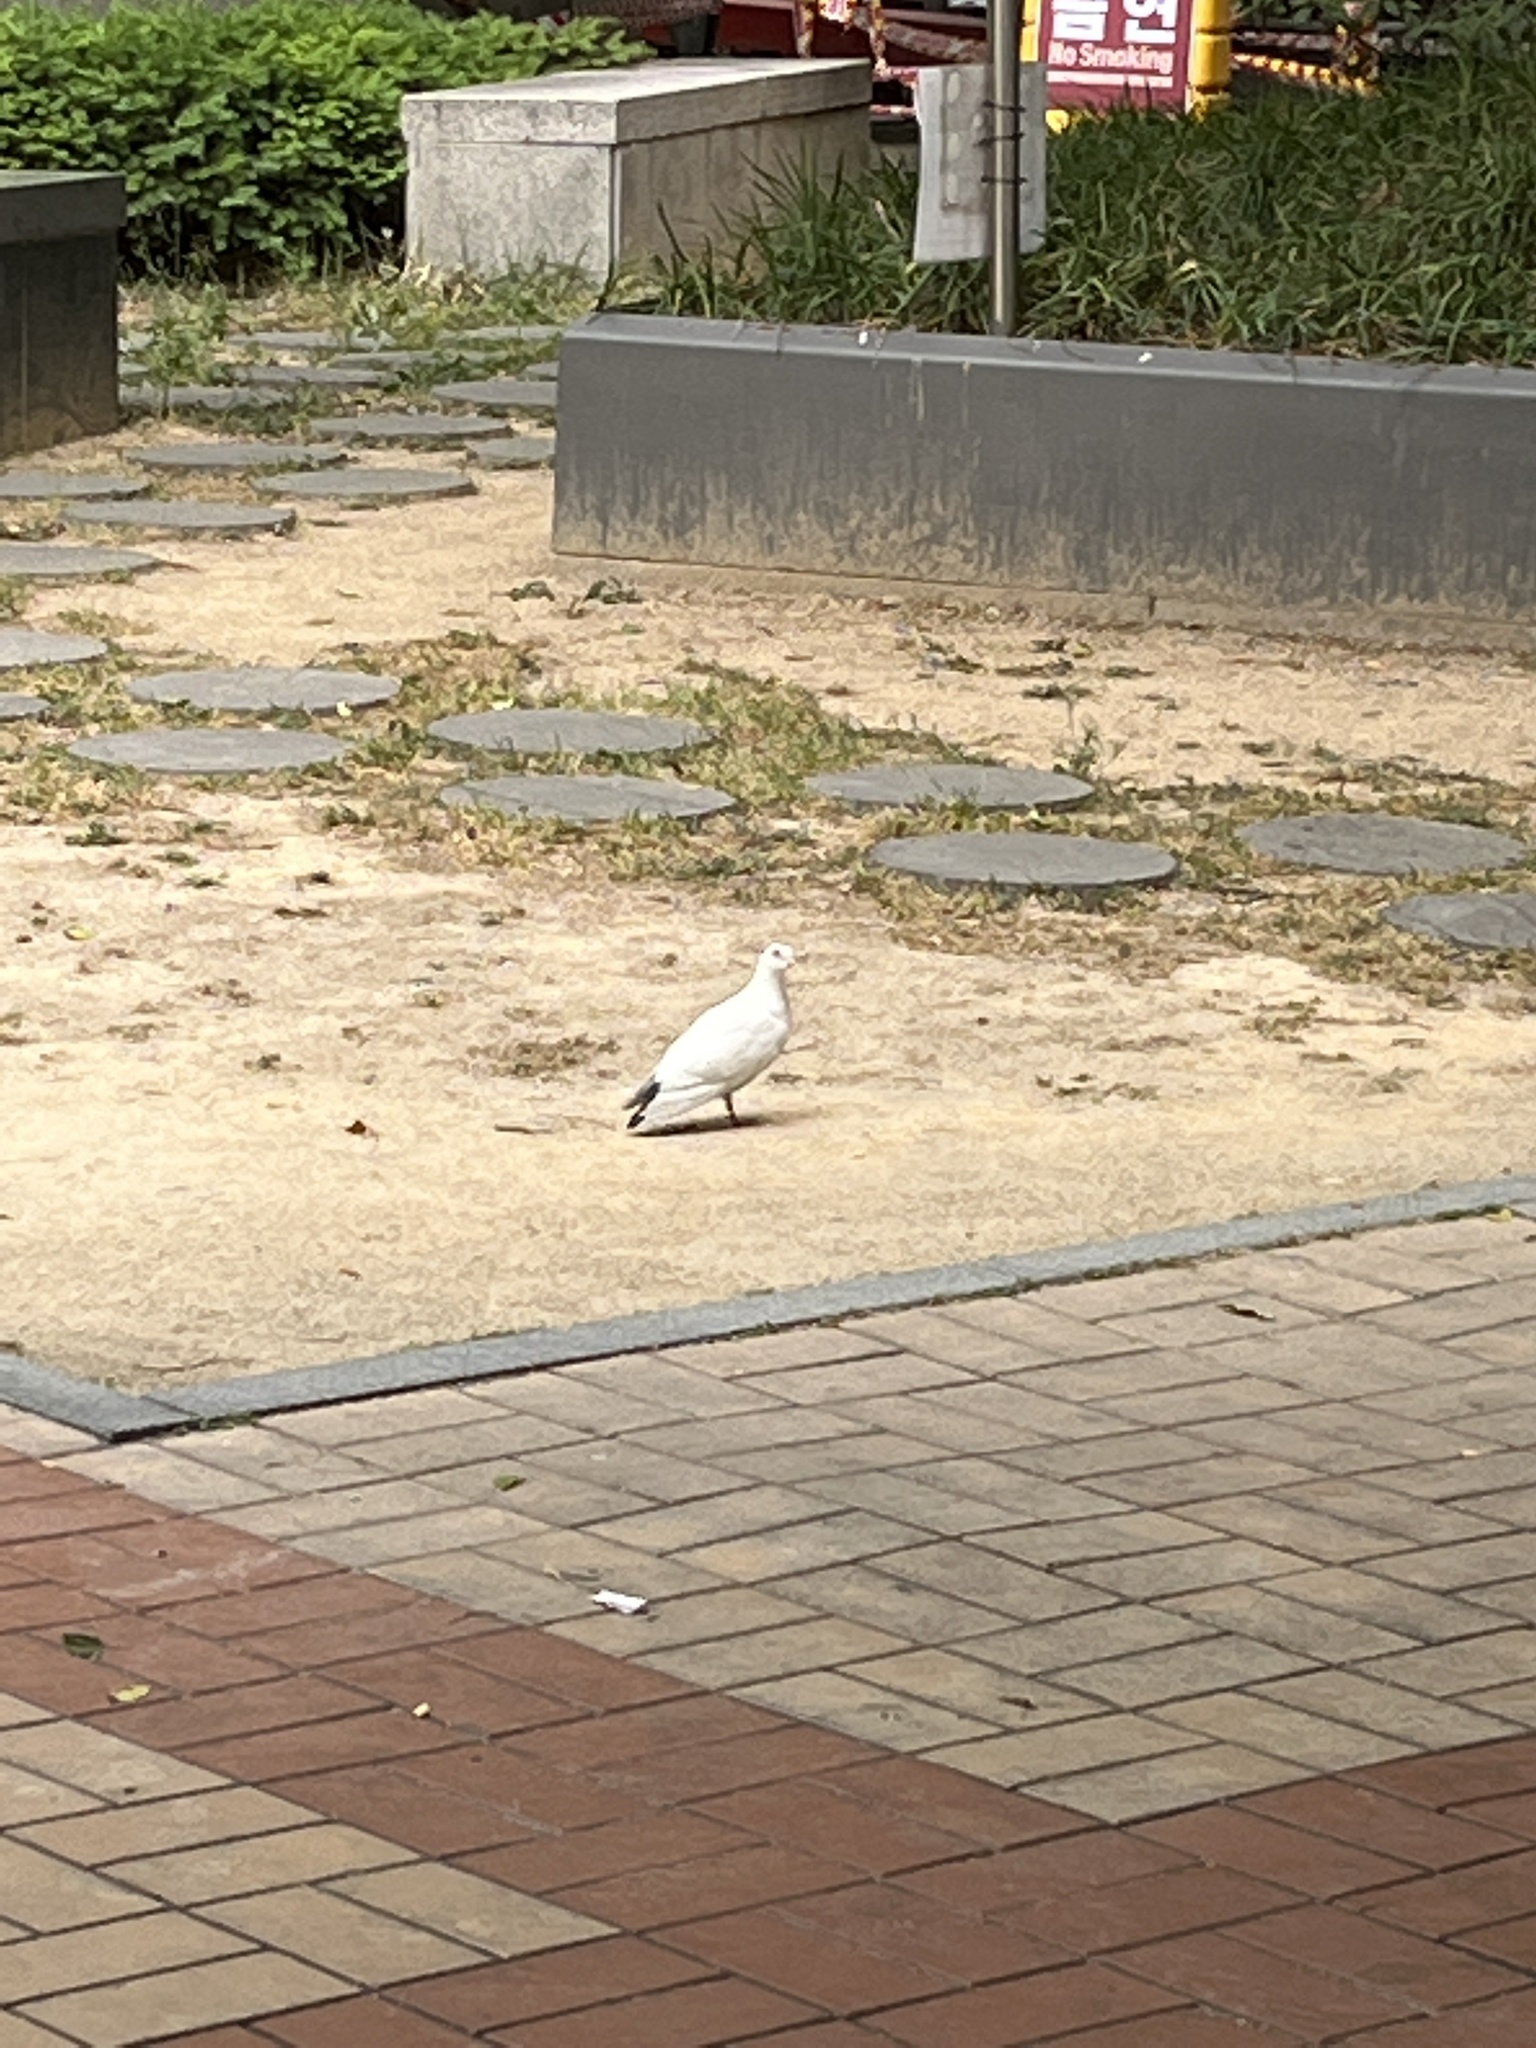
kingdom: Animalia
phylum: Chordata
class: Aves
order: Columbiformes
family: Columbidae
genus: Columba
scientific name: Columba livia
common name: Rock pigeon
